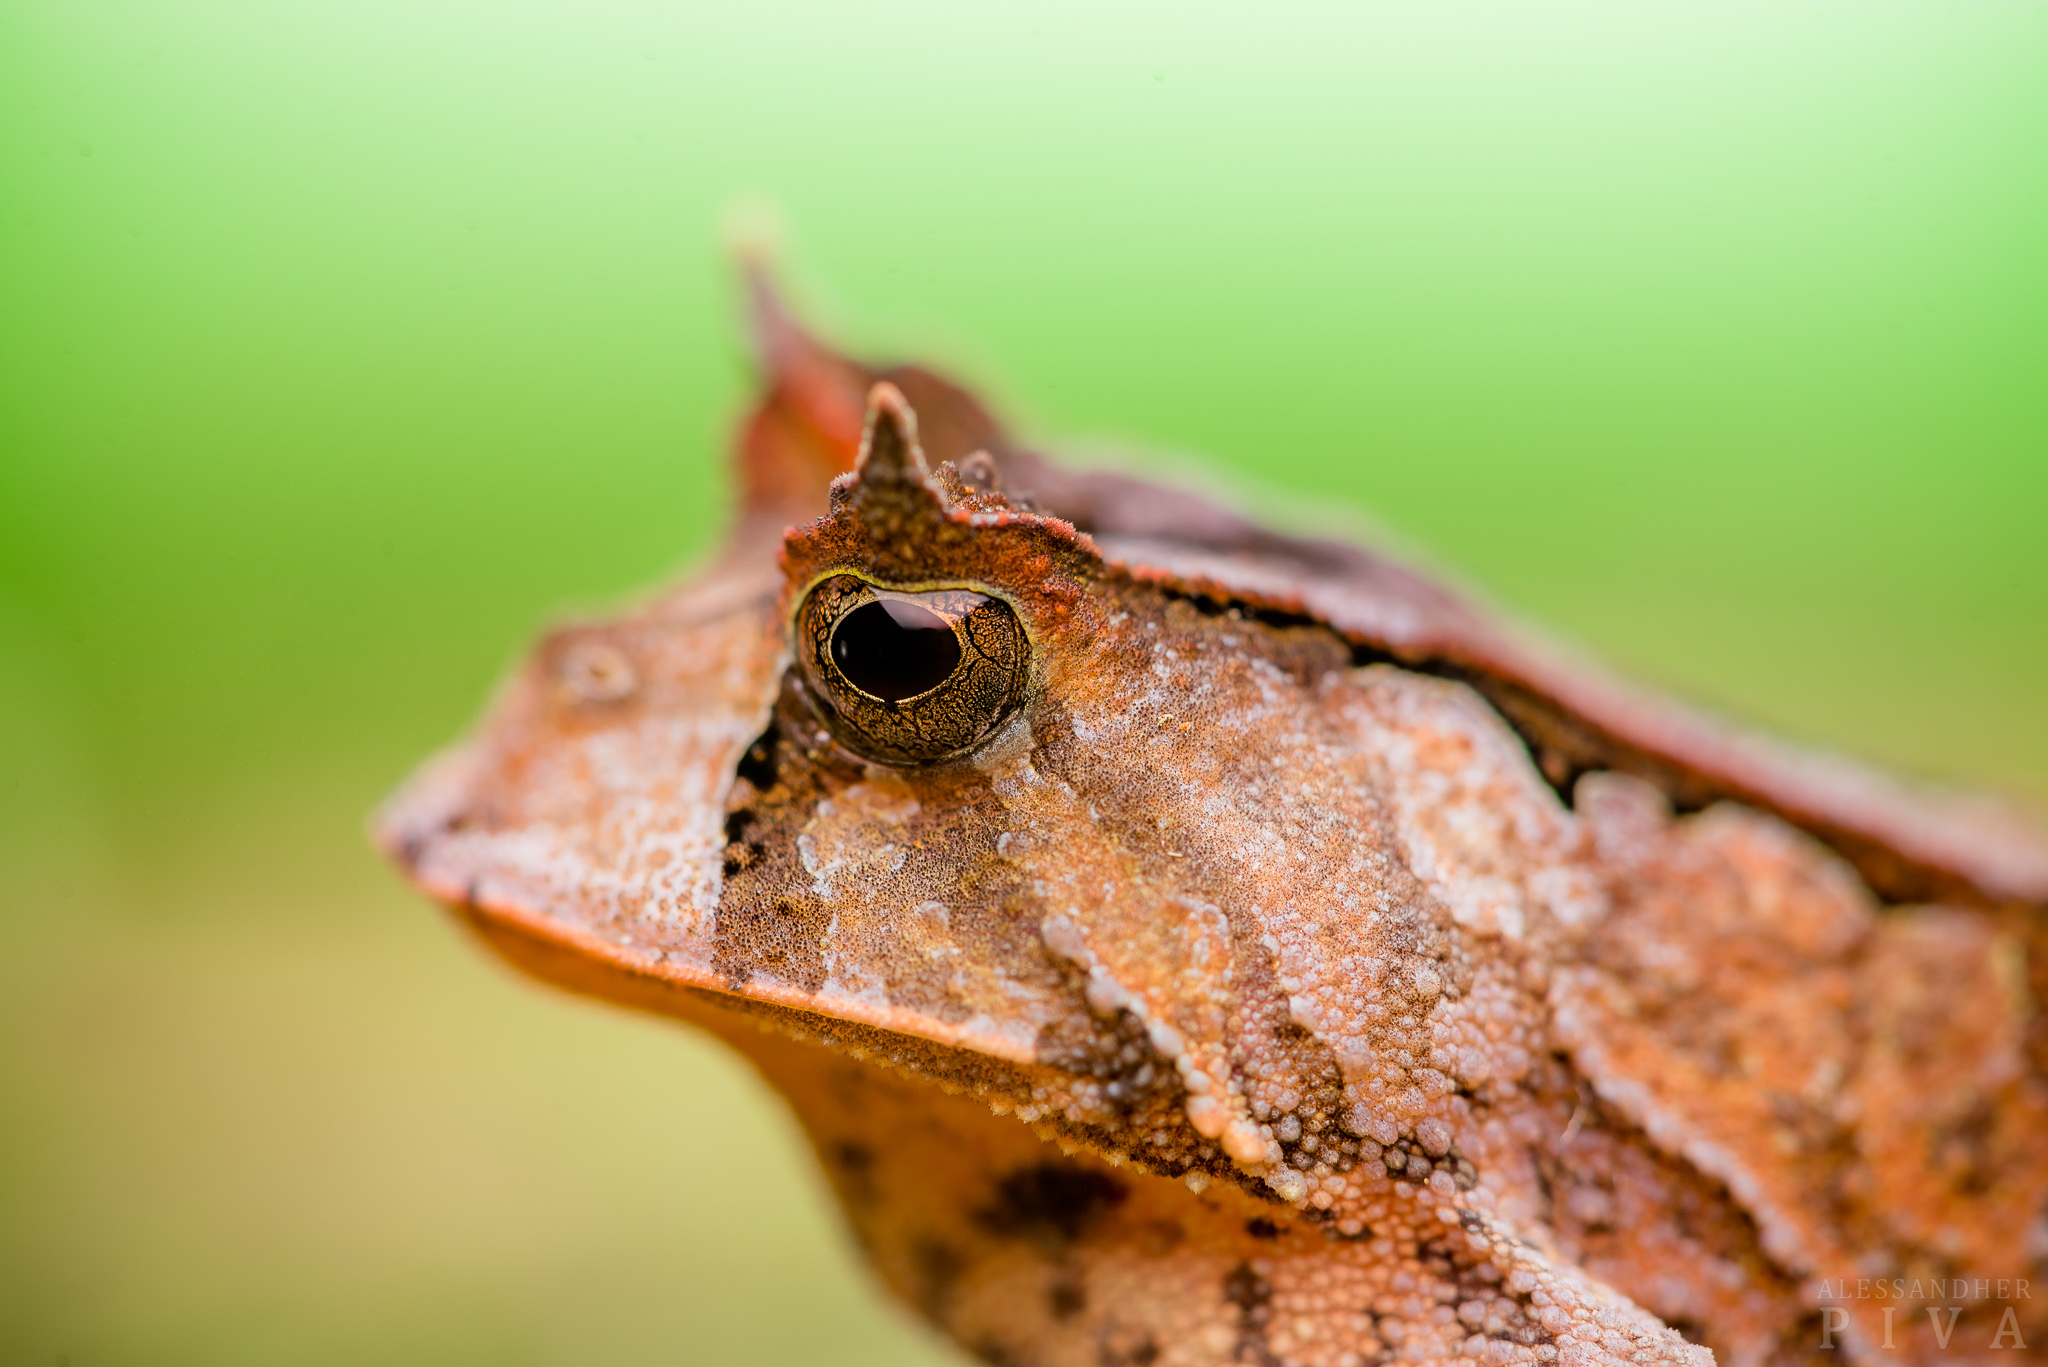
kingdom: Animalia
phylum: Chordata
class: Amphibia
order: Anura
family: Odontophrynidae
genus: Proceratophrys
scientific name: Proceratophrys boiei
